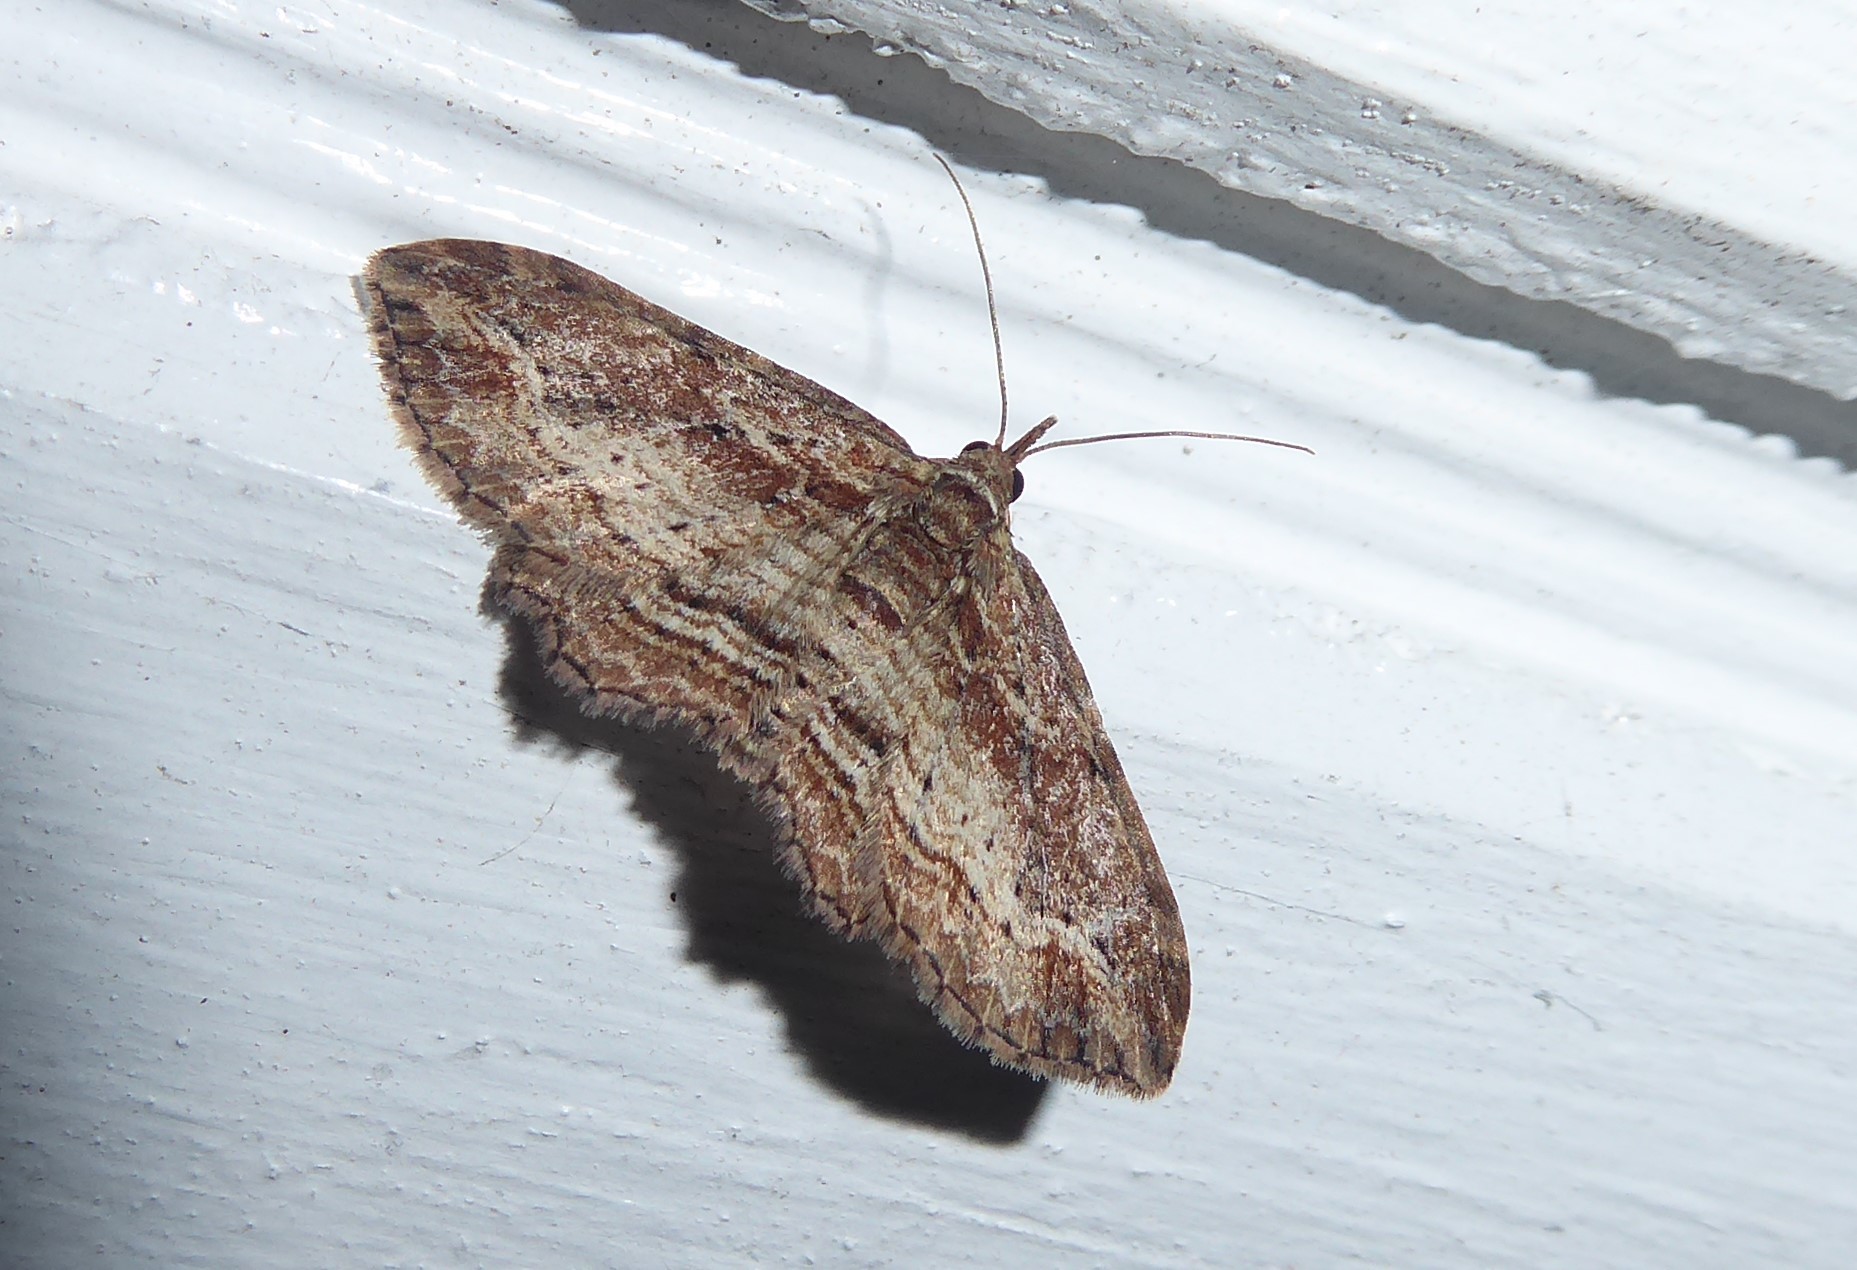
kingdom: Animalia
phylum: Arthropoda
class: Insecta
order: Lepidoptera
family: Geometridae
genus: Chloroclystis
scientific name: Chloroclystis filata
